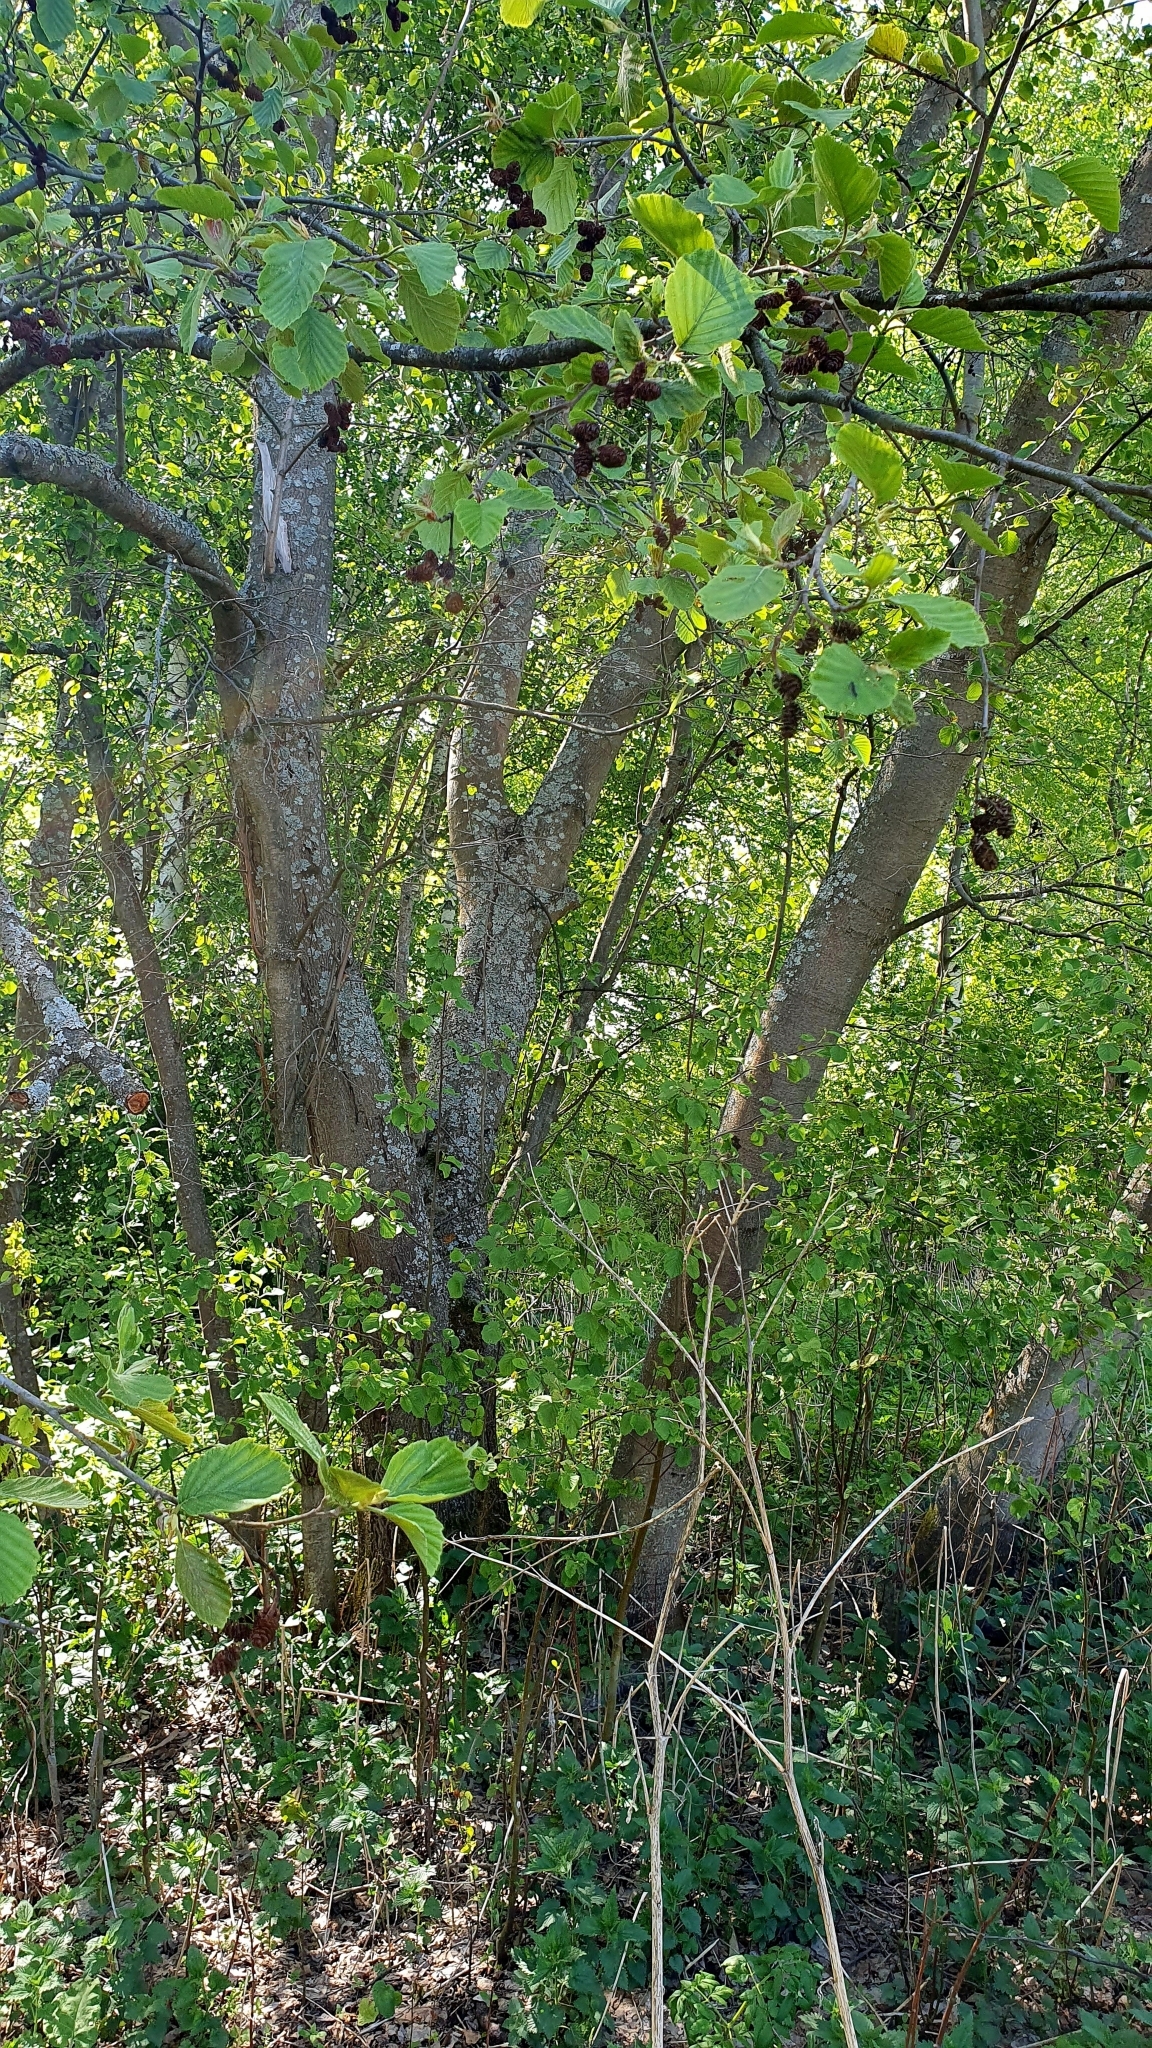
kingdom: Plantae
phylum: Tracheophyta
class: Magnoliopsida
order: Fagales
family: Betulaceae
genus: Alnus
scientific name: Alnus glutinosa
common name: Black alder
